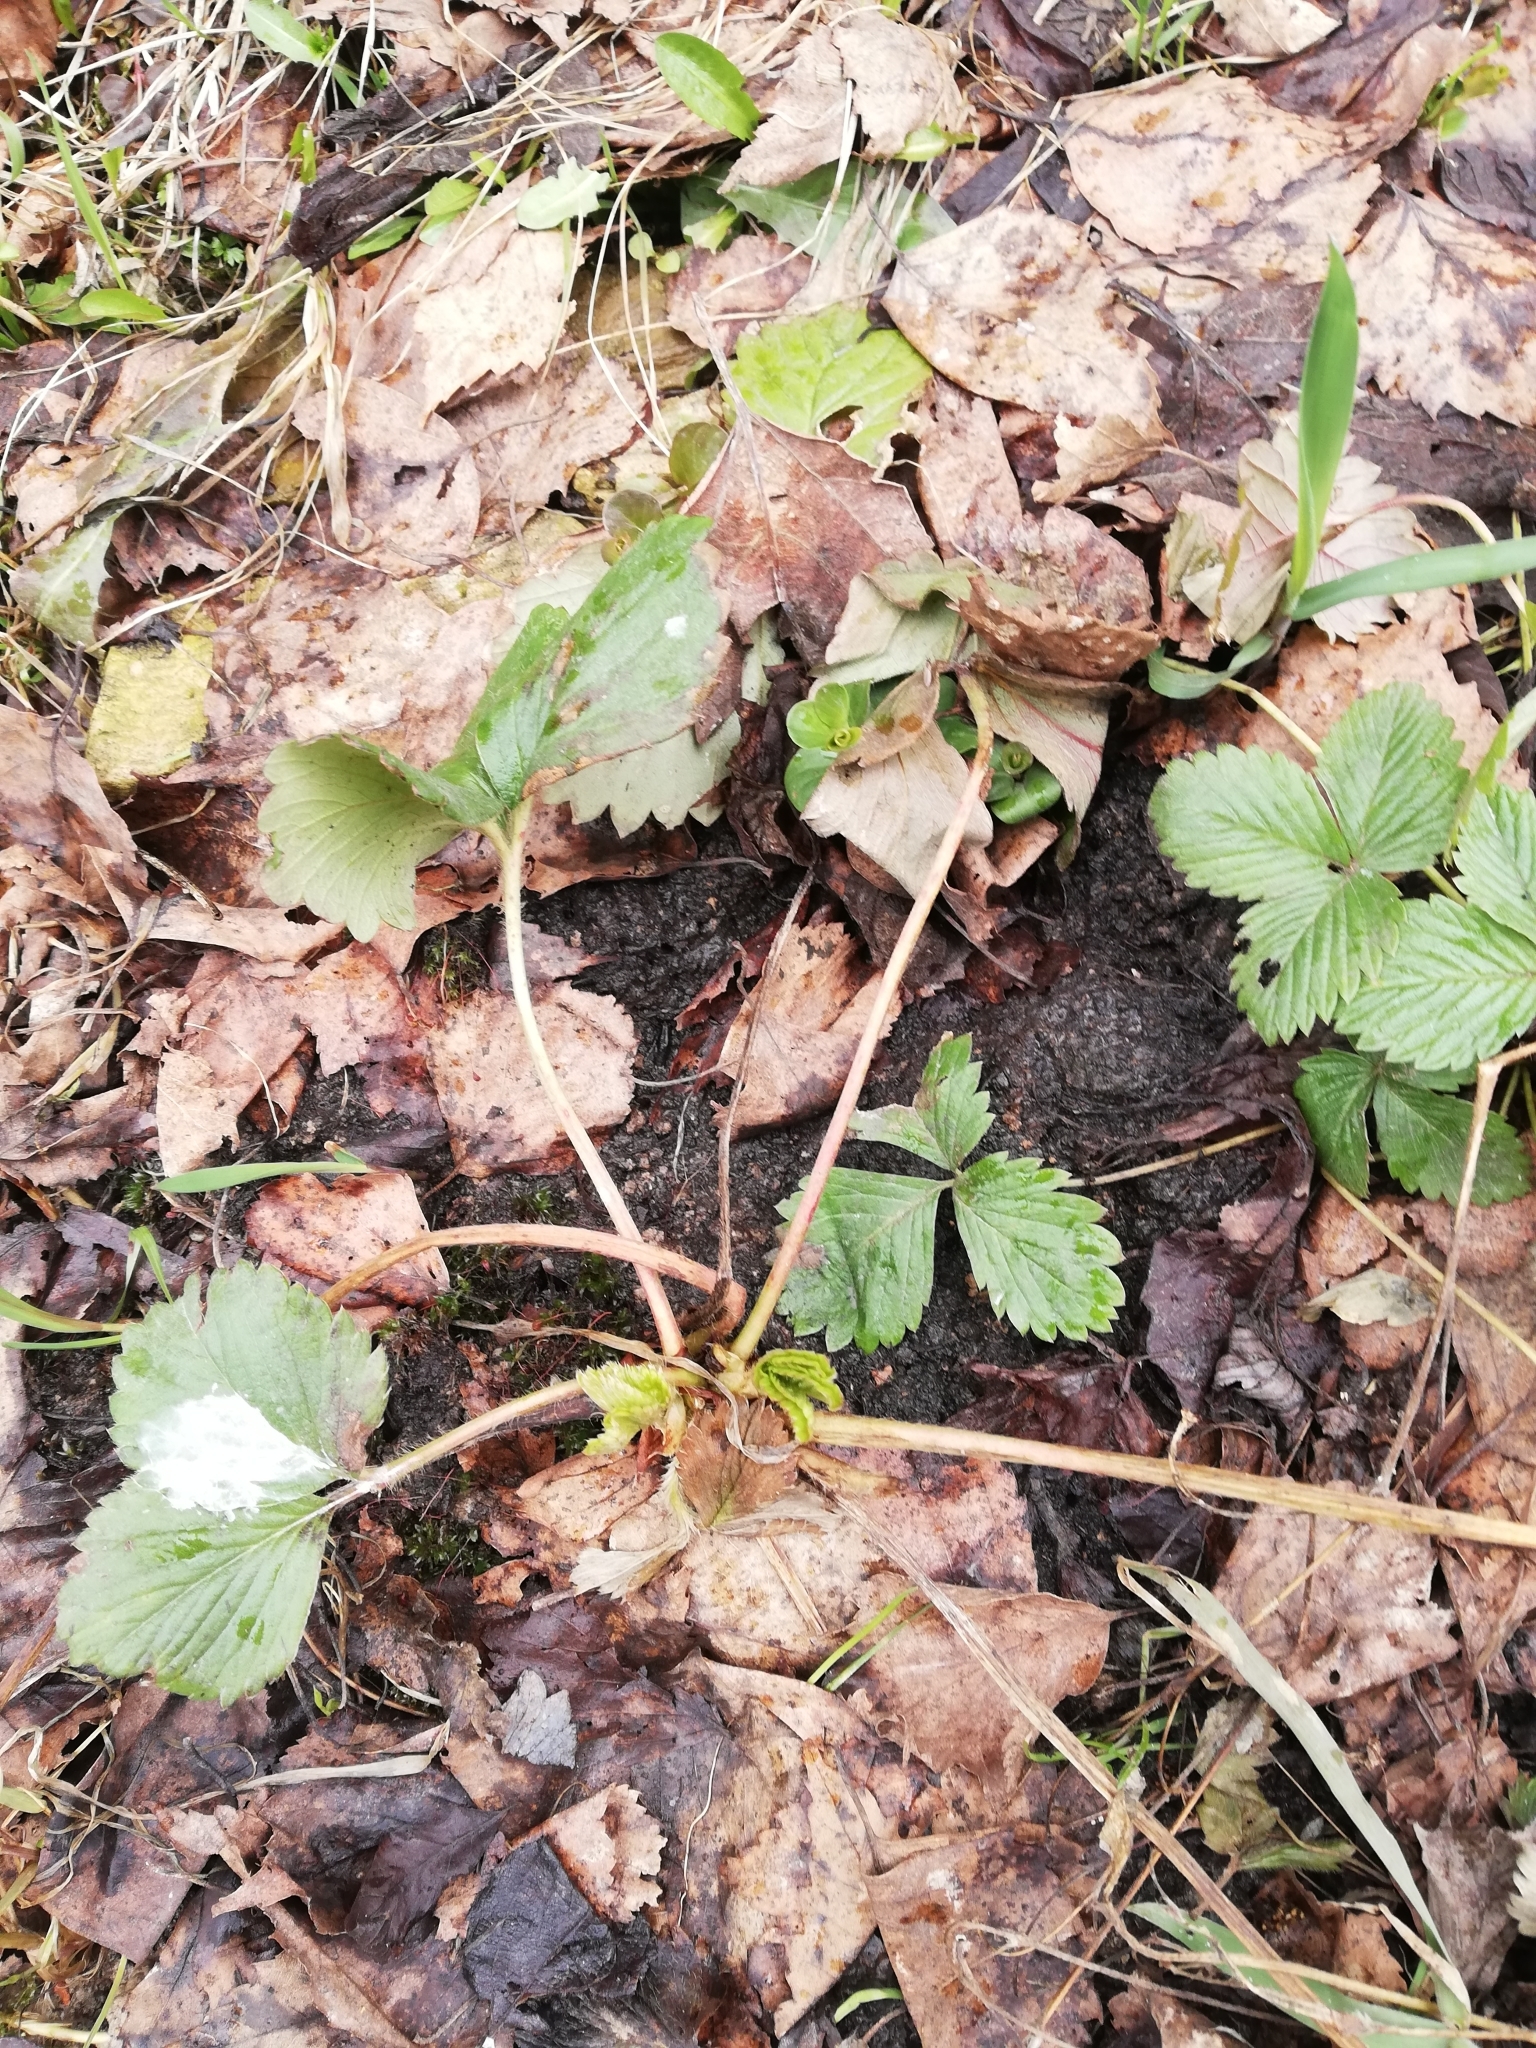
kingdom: Plantae
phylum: Tracheophyta
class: Magnoliopsida
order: Rosales
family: Rosaceae
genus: Fragaria
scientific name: Fragaria vesca
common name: Wild strawberry
